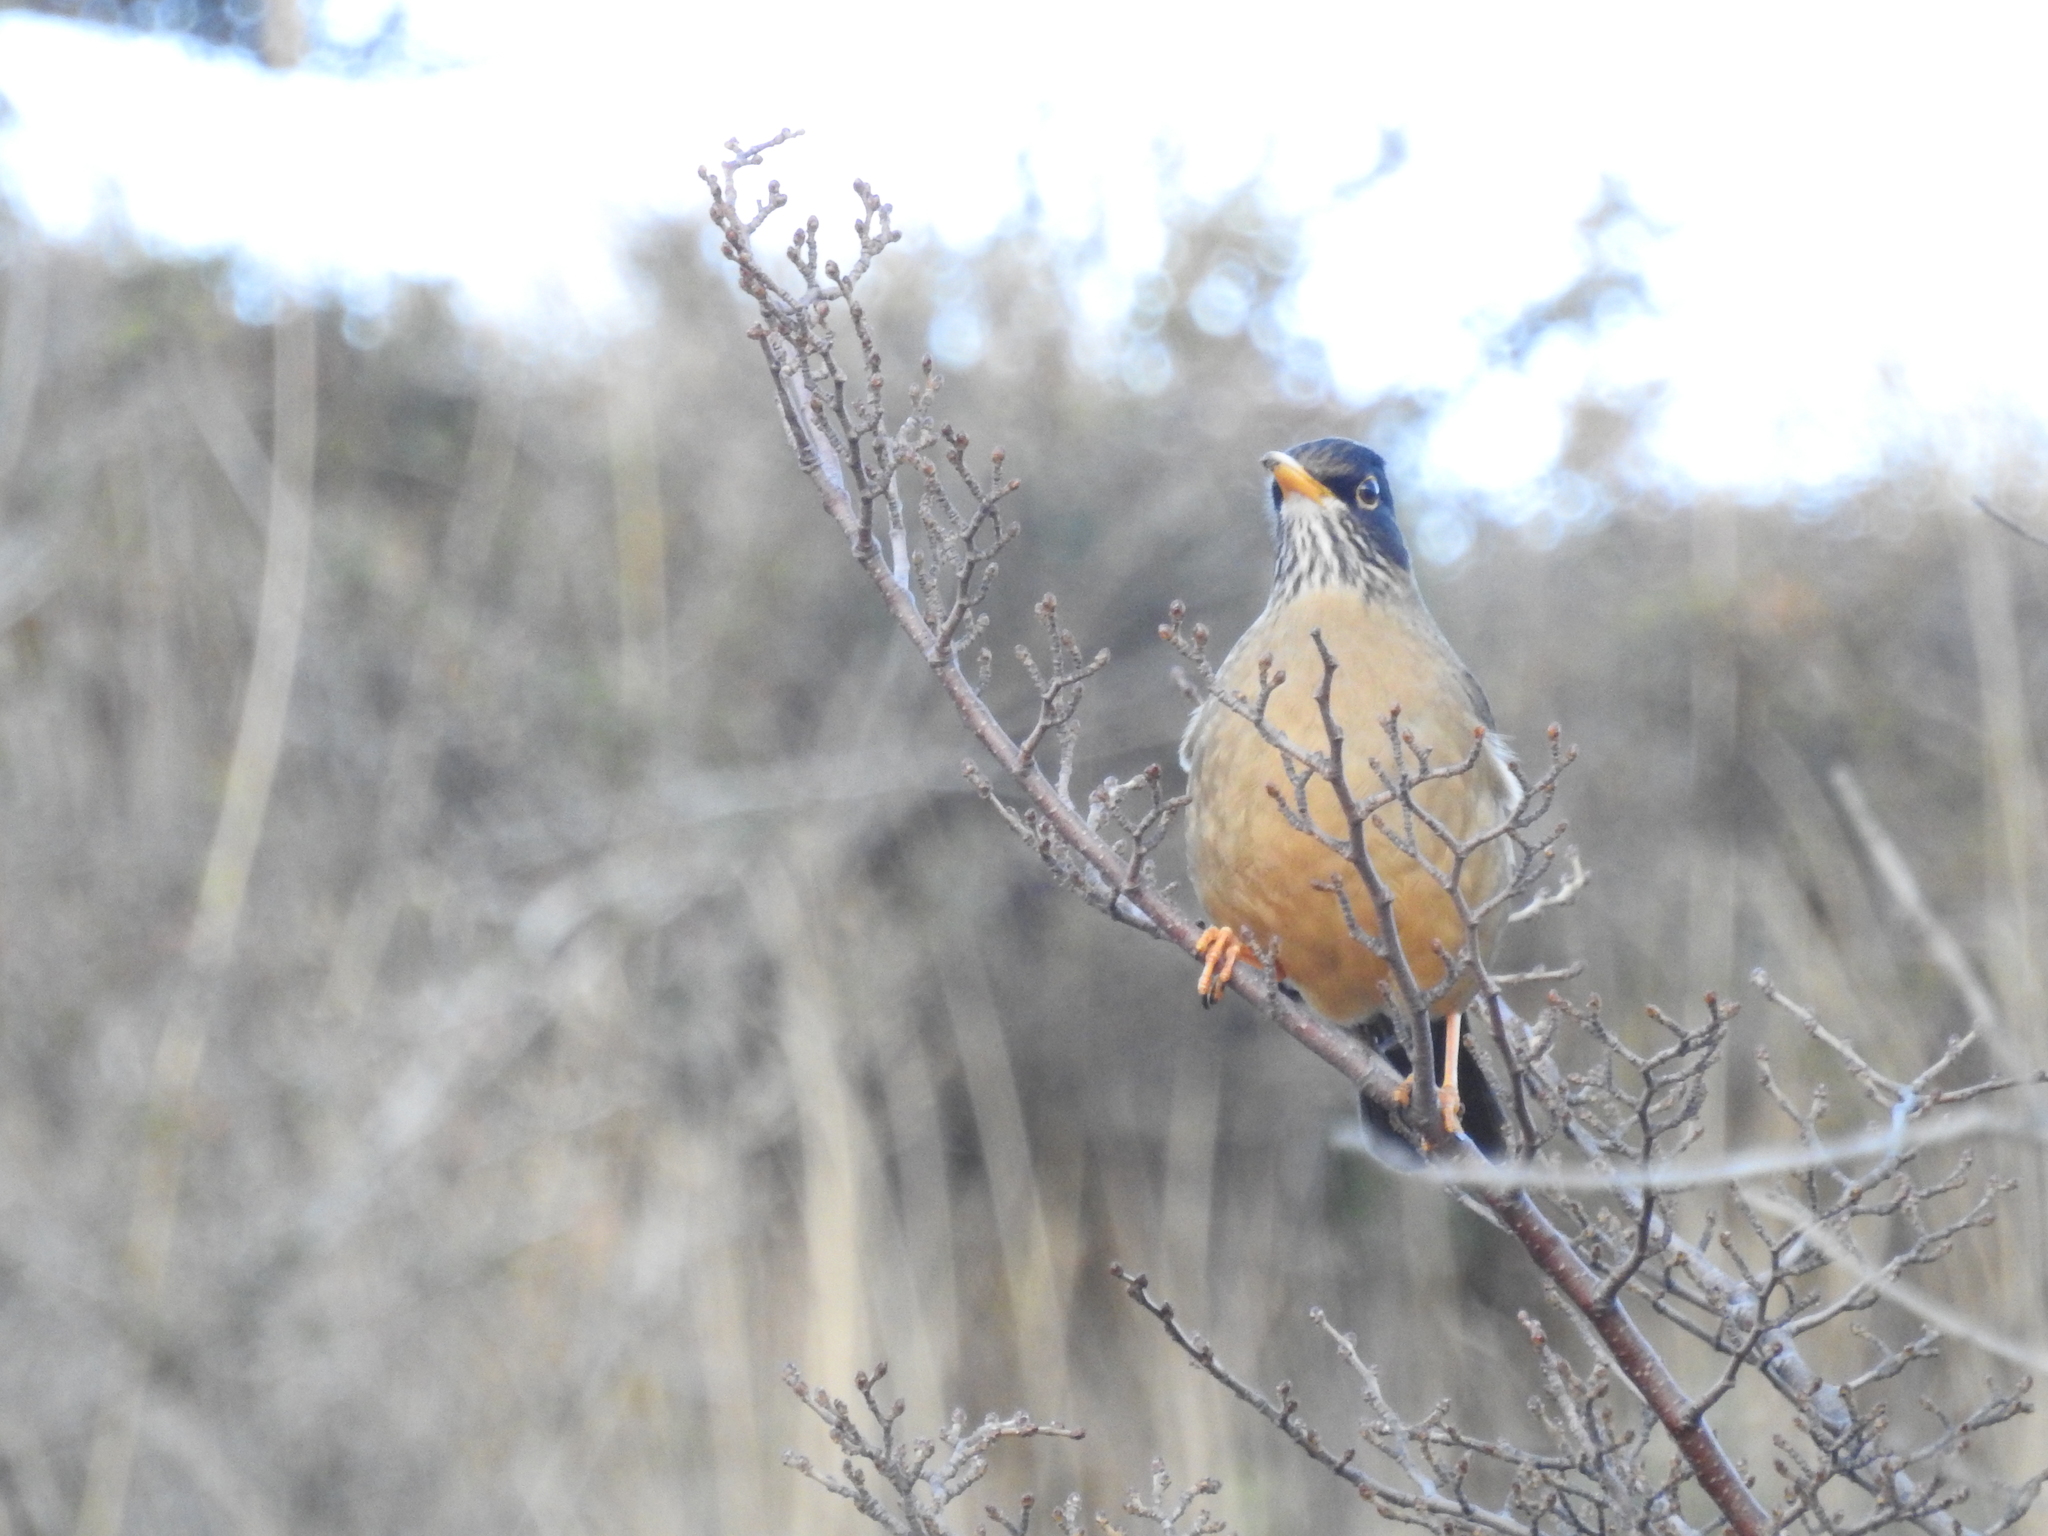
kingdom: Animalia
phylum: Chordata
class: Aves
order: Passeriformes
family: Turdidae
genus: Turdus
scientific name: Turdus falcklandii
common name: Austral thrush
